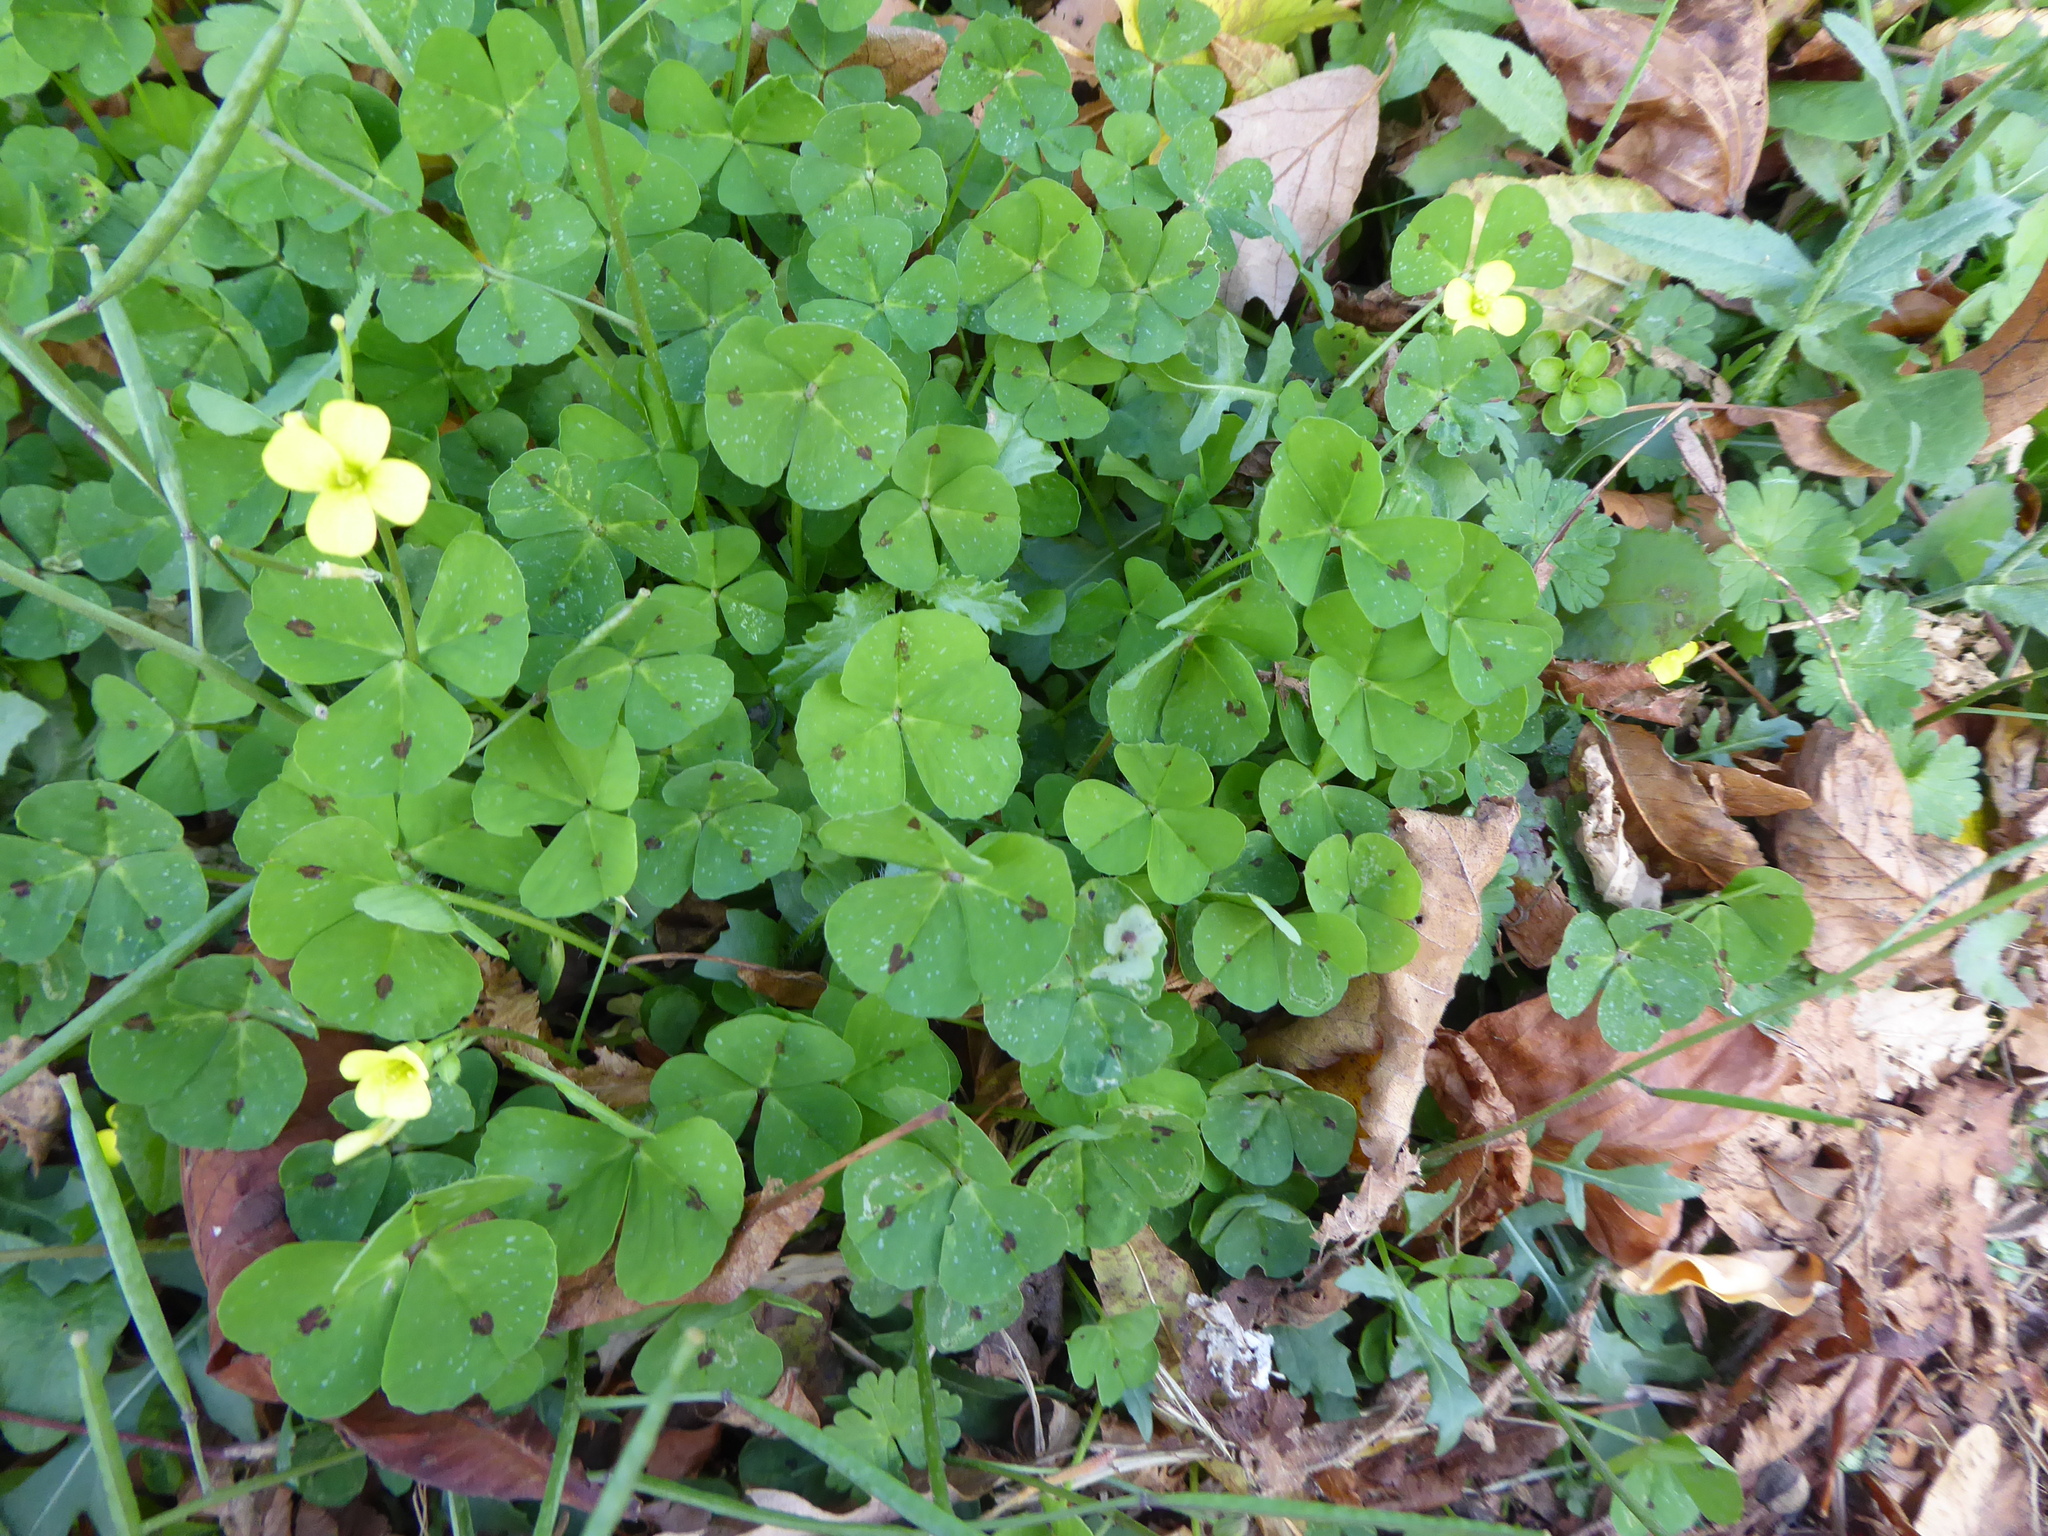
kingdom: Plantae
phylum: Tracheophyta
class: Magnoliopsida
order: Fabales
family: Fabaceae
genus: Medicago
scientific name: Medicago arabica
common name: Spotted medick
